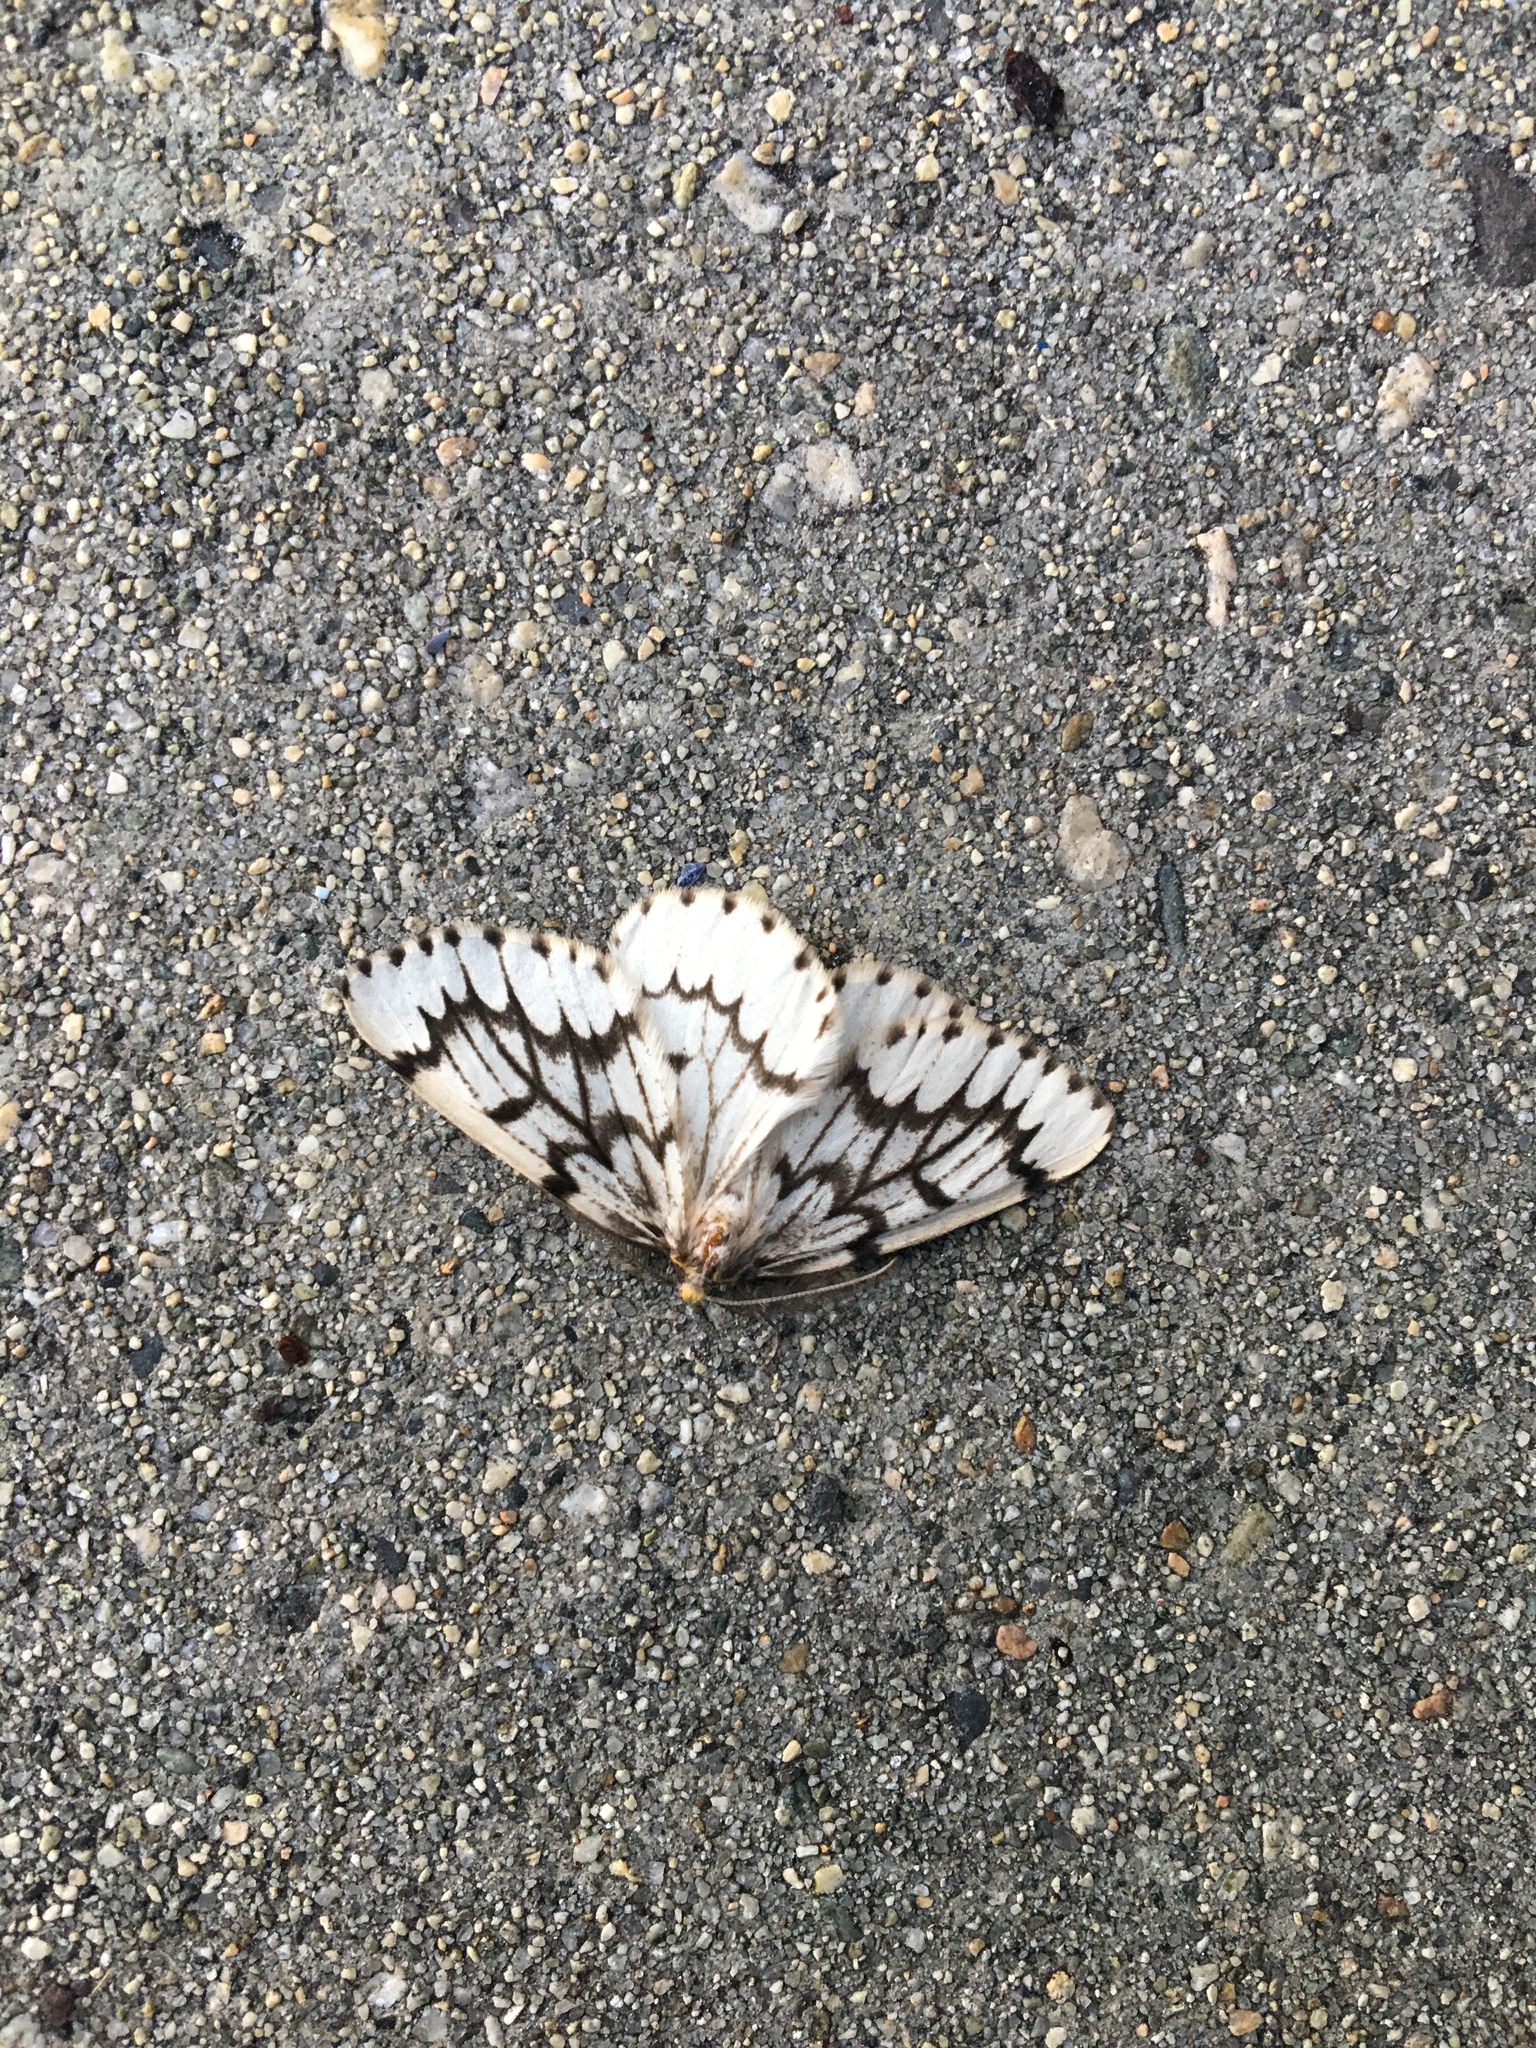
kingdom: Animalia
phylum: Arthropoda
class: Insecta
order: Lepidoptera
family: Geometridae
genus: Nepytia
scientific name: Nepytia phantasmaria
